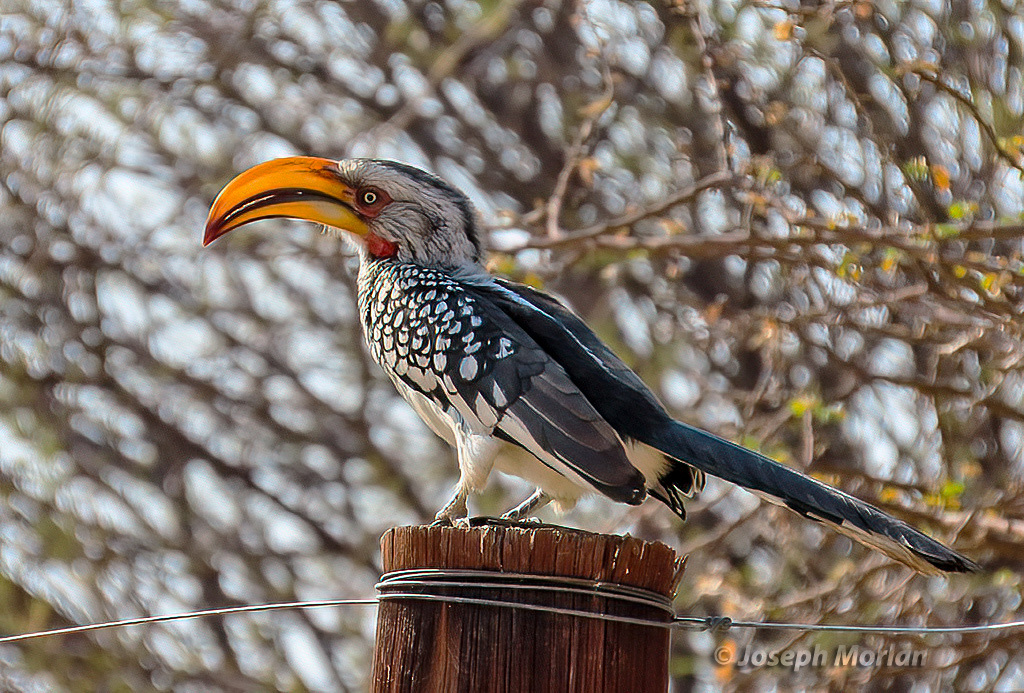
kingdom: Animalia
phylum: Chordata
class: Aves
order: Bucerotiformes
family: Bucerotidae
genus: Tockus
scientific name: Tockus leucomelas
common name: Southern yellow-billed hornbill
